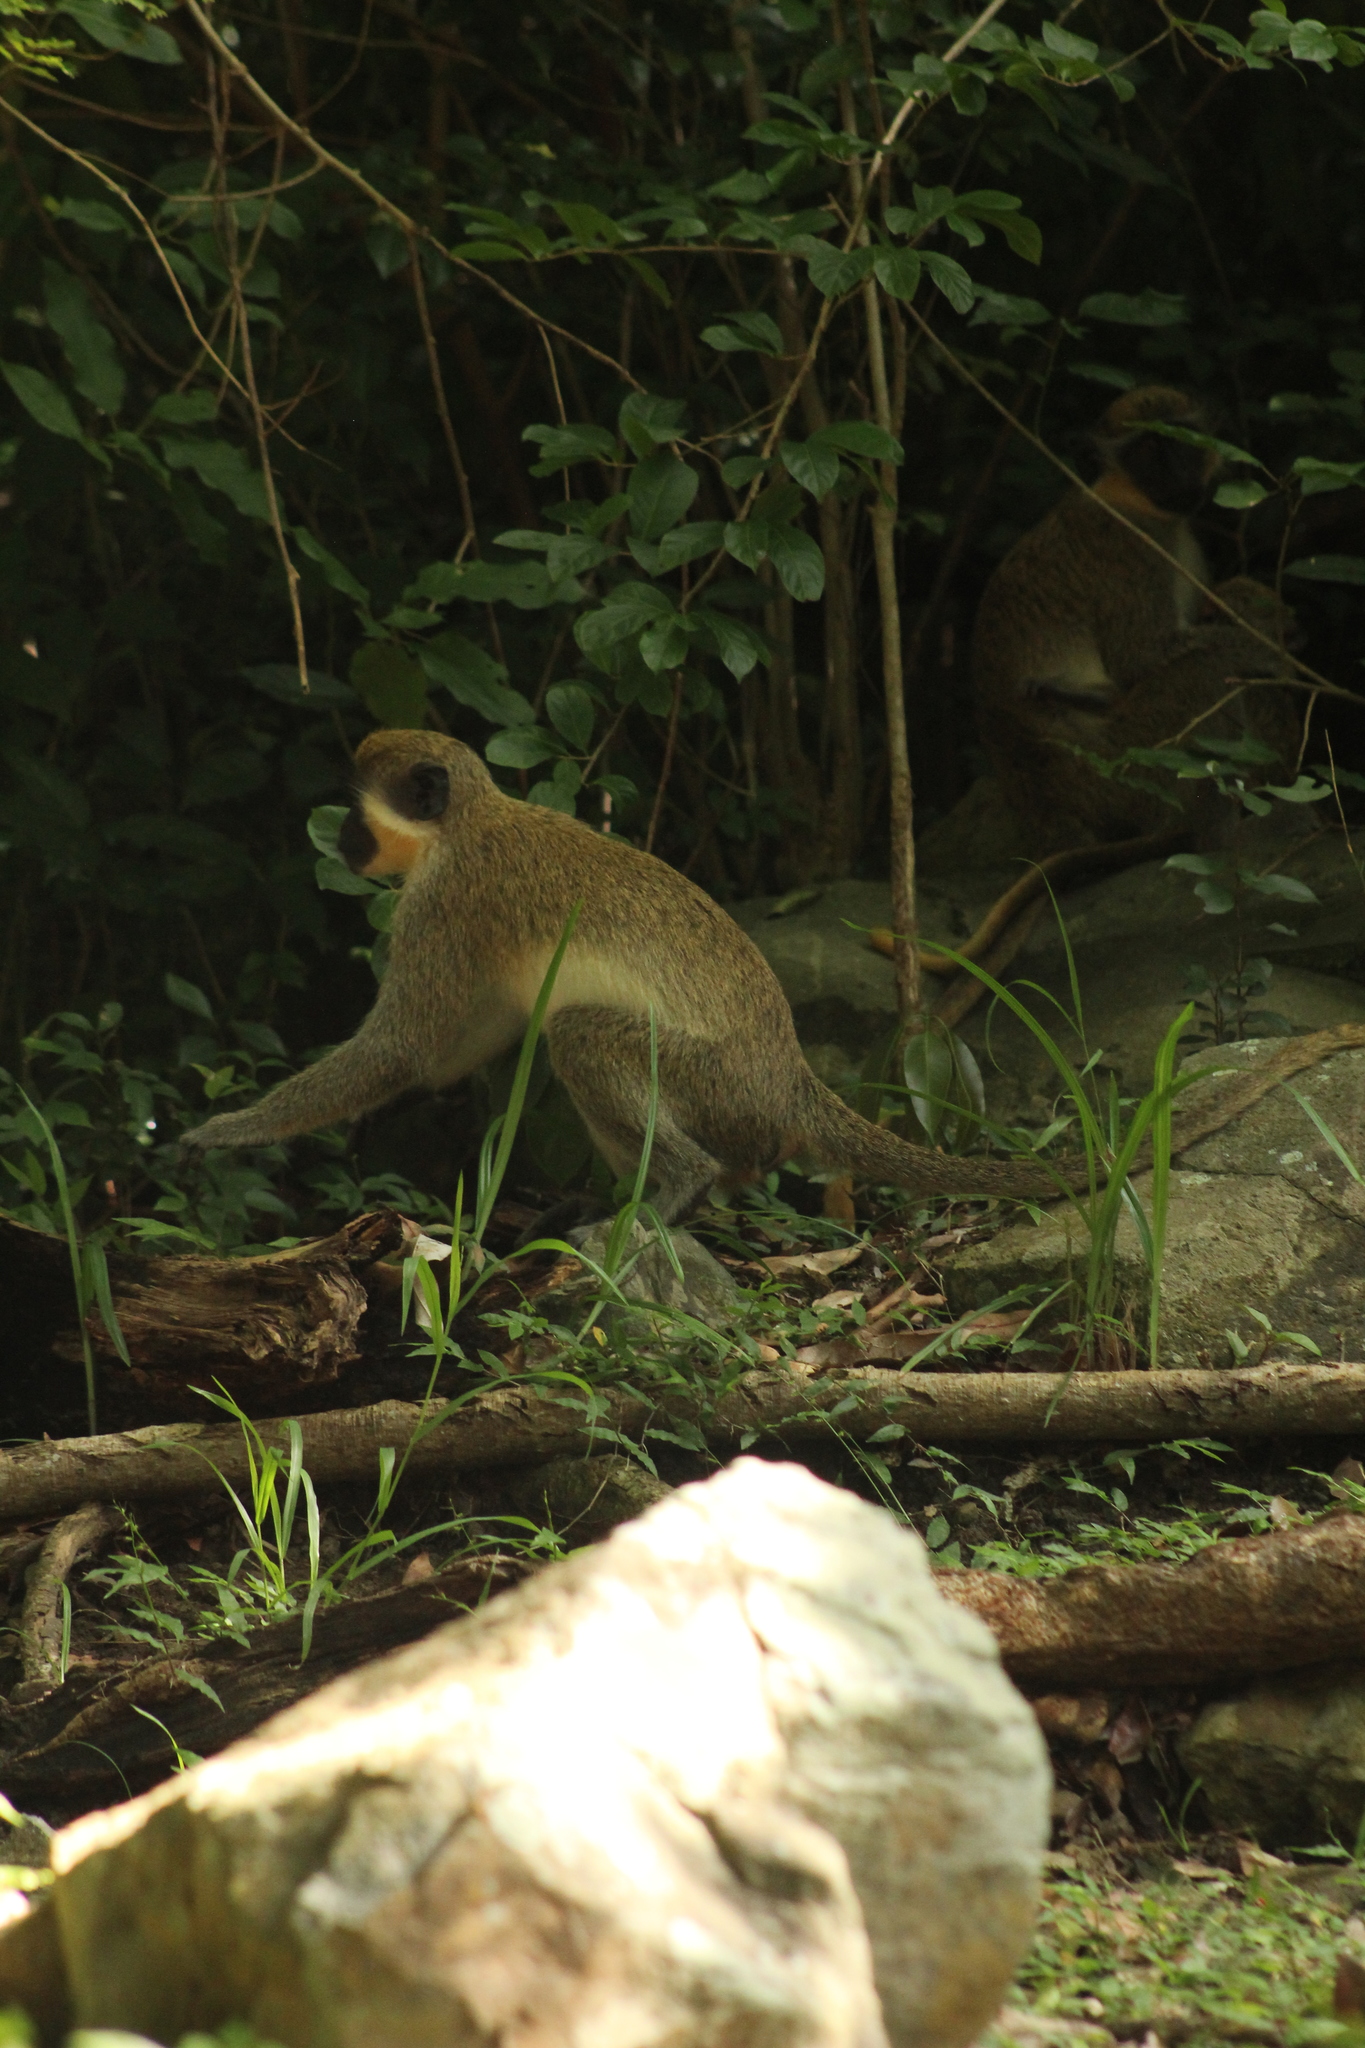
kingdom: Animalia
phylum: Chordata
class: Mammalia
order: Primates
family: Cercopithecidae
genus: Chlorocebus
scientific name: Chlorocebus sabaeus
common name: Green monkey
